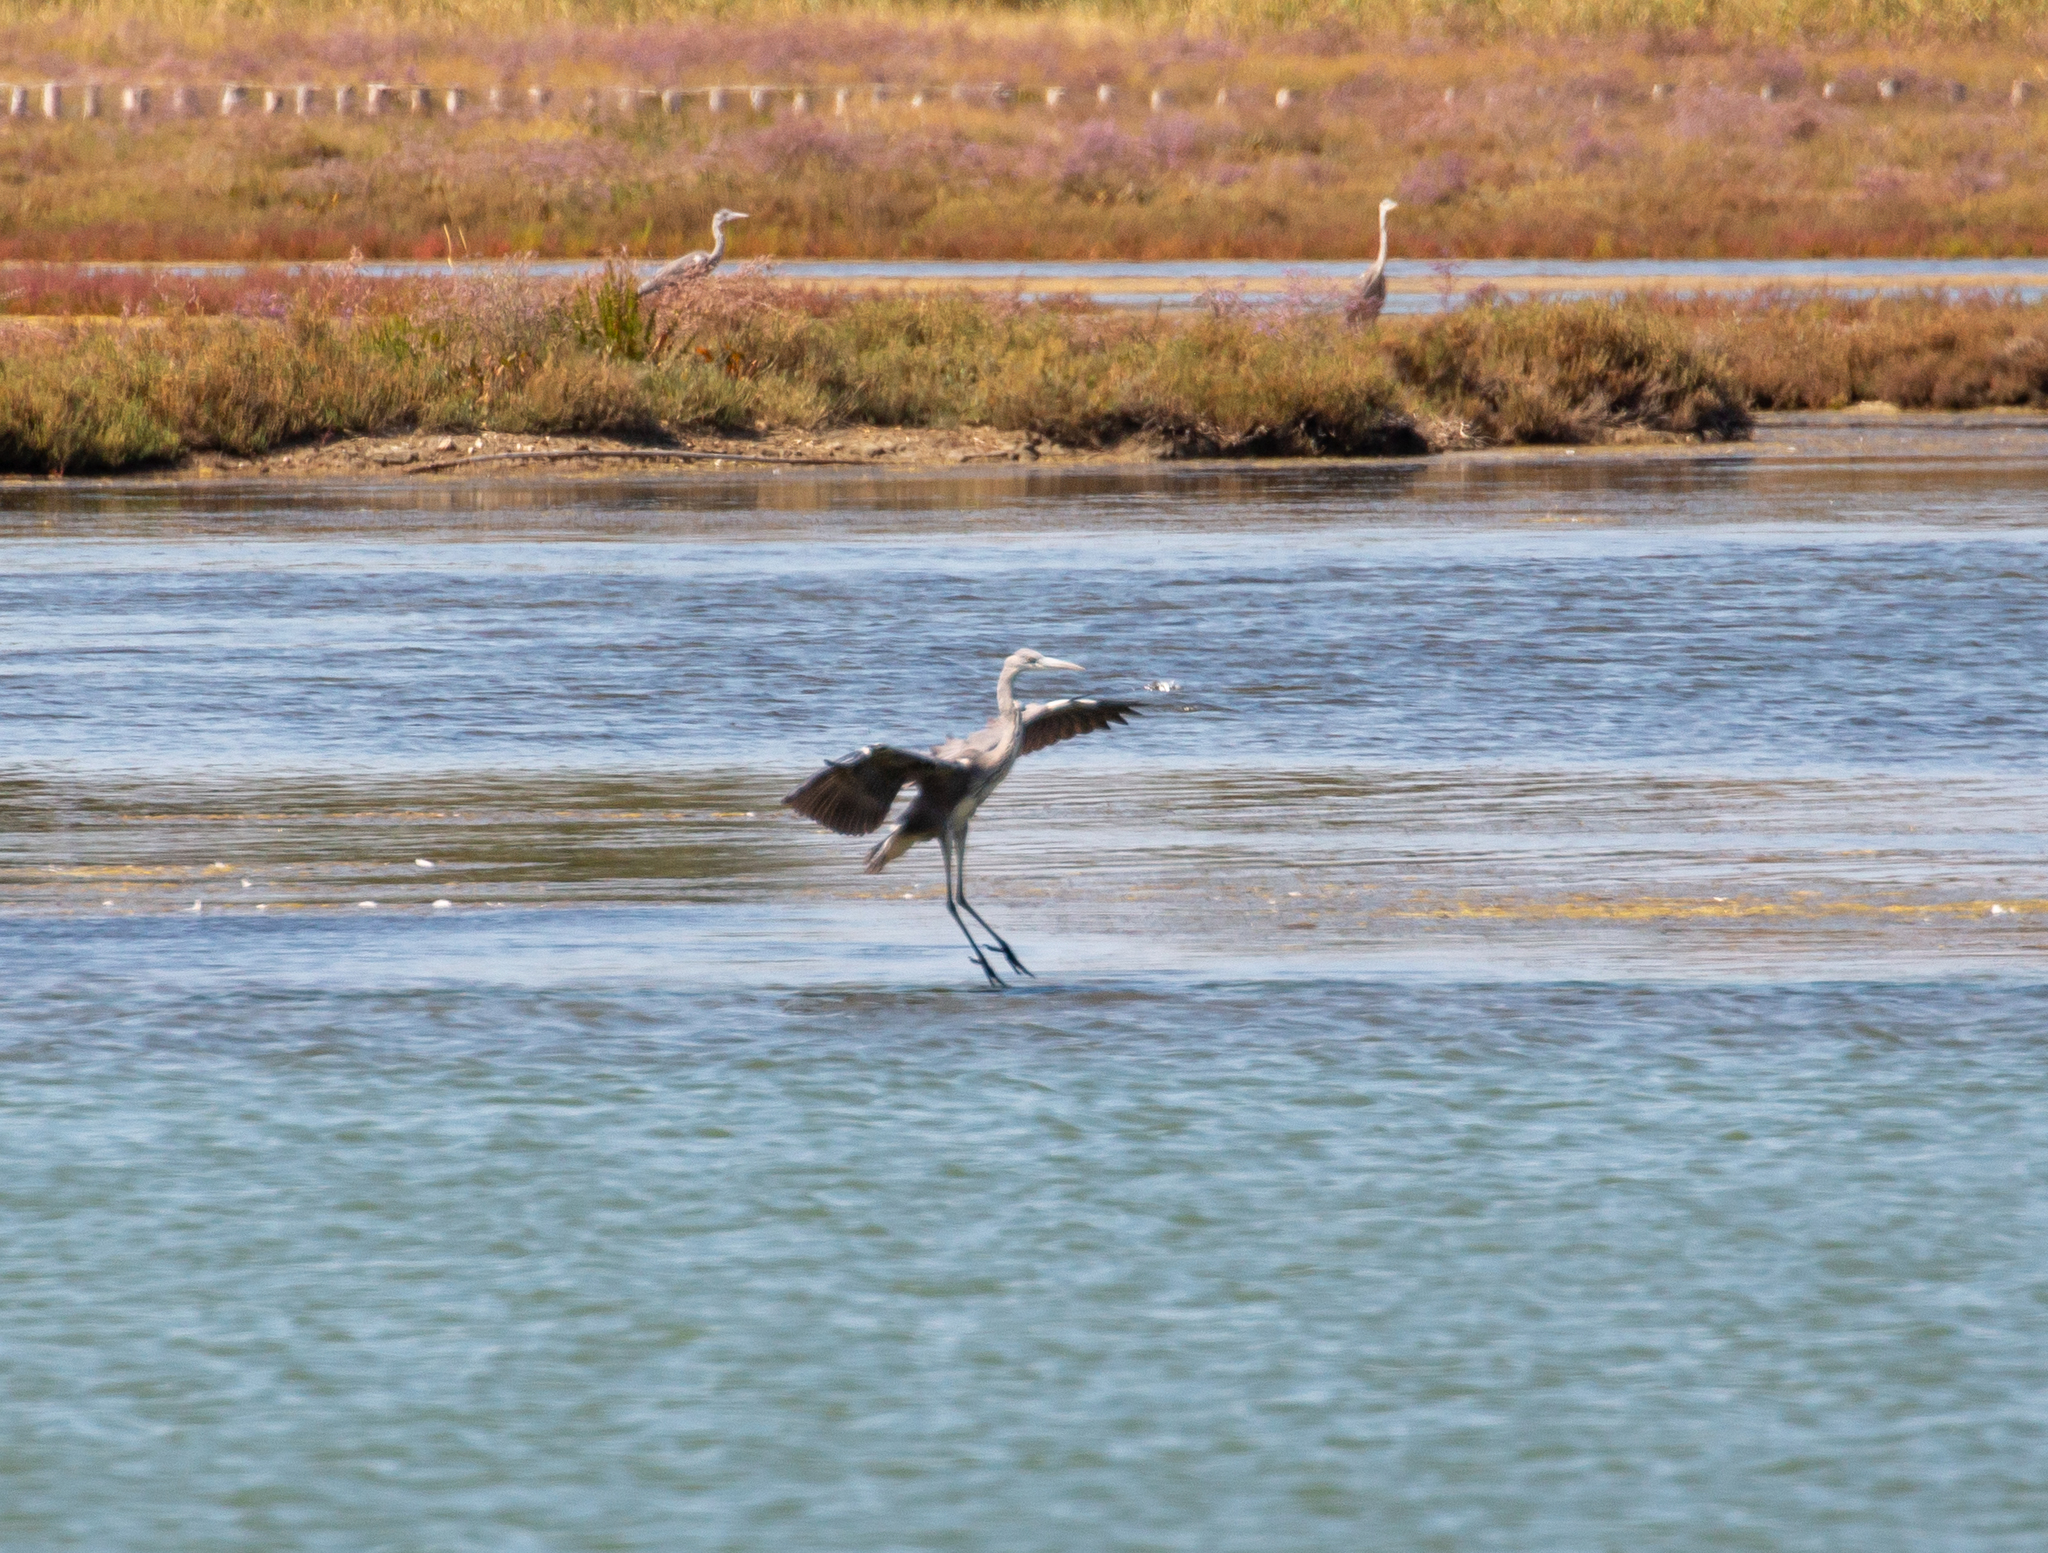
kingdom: Animalia
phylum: Chordata
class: Aves
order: Pelecaniformes
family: Ardeidae
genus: Ardea
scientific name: Ardea cinerea
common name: Grey heron
